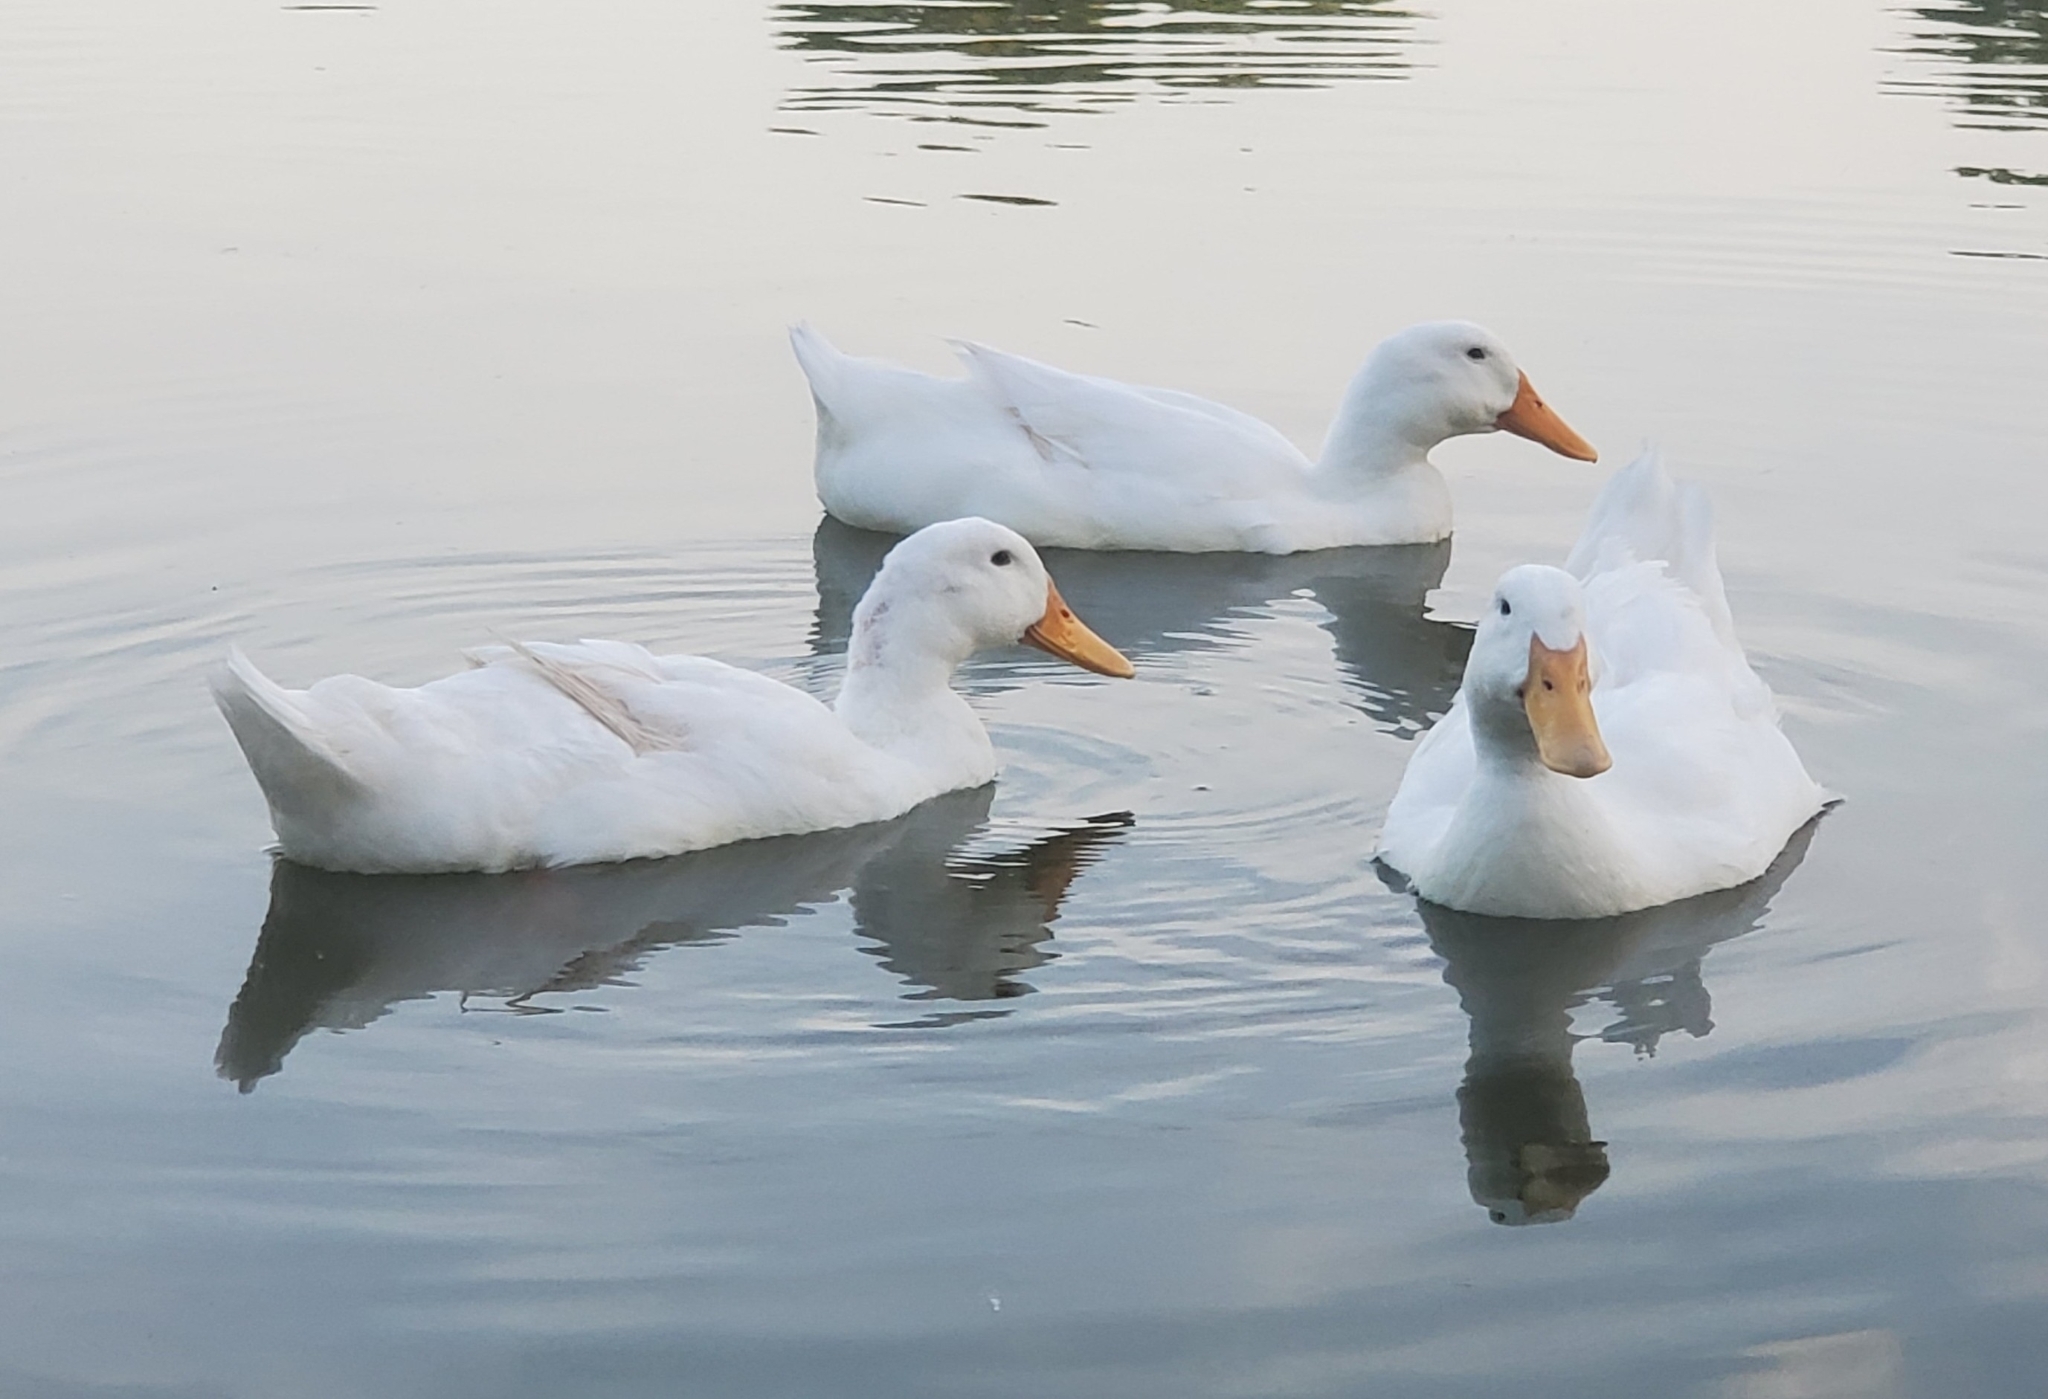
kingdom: Animalia
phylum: Chordata
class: Aves
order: Anseriformes
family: Anatidae
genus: Anas
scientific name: Anas platyrhynchos
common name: Mallard
